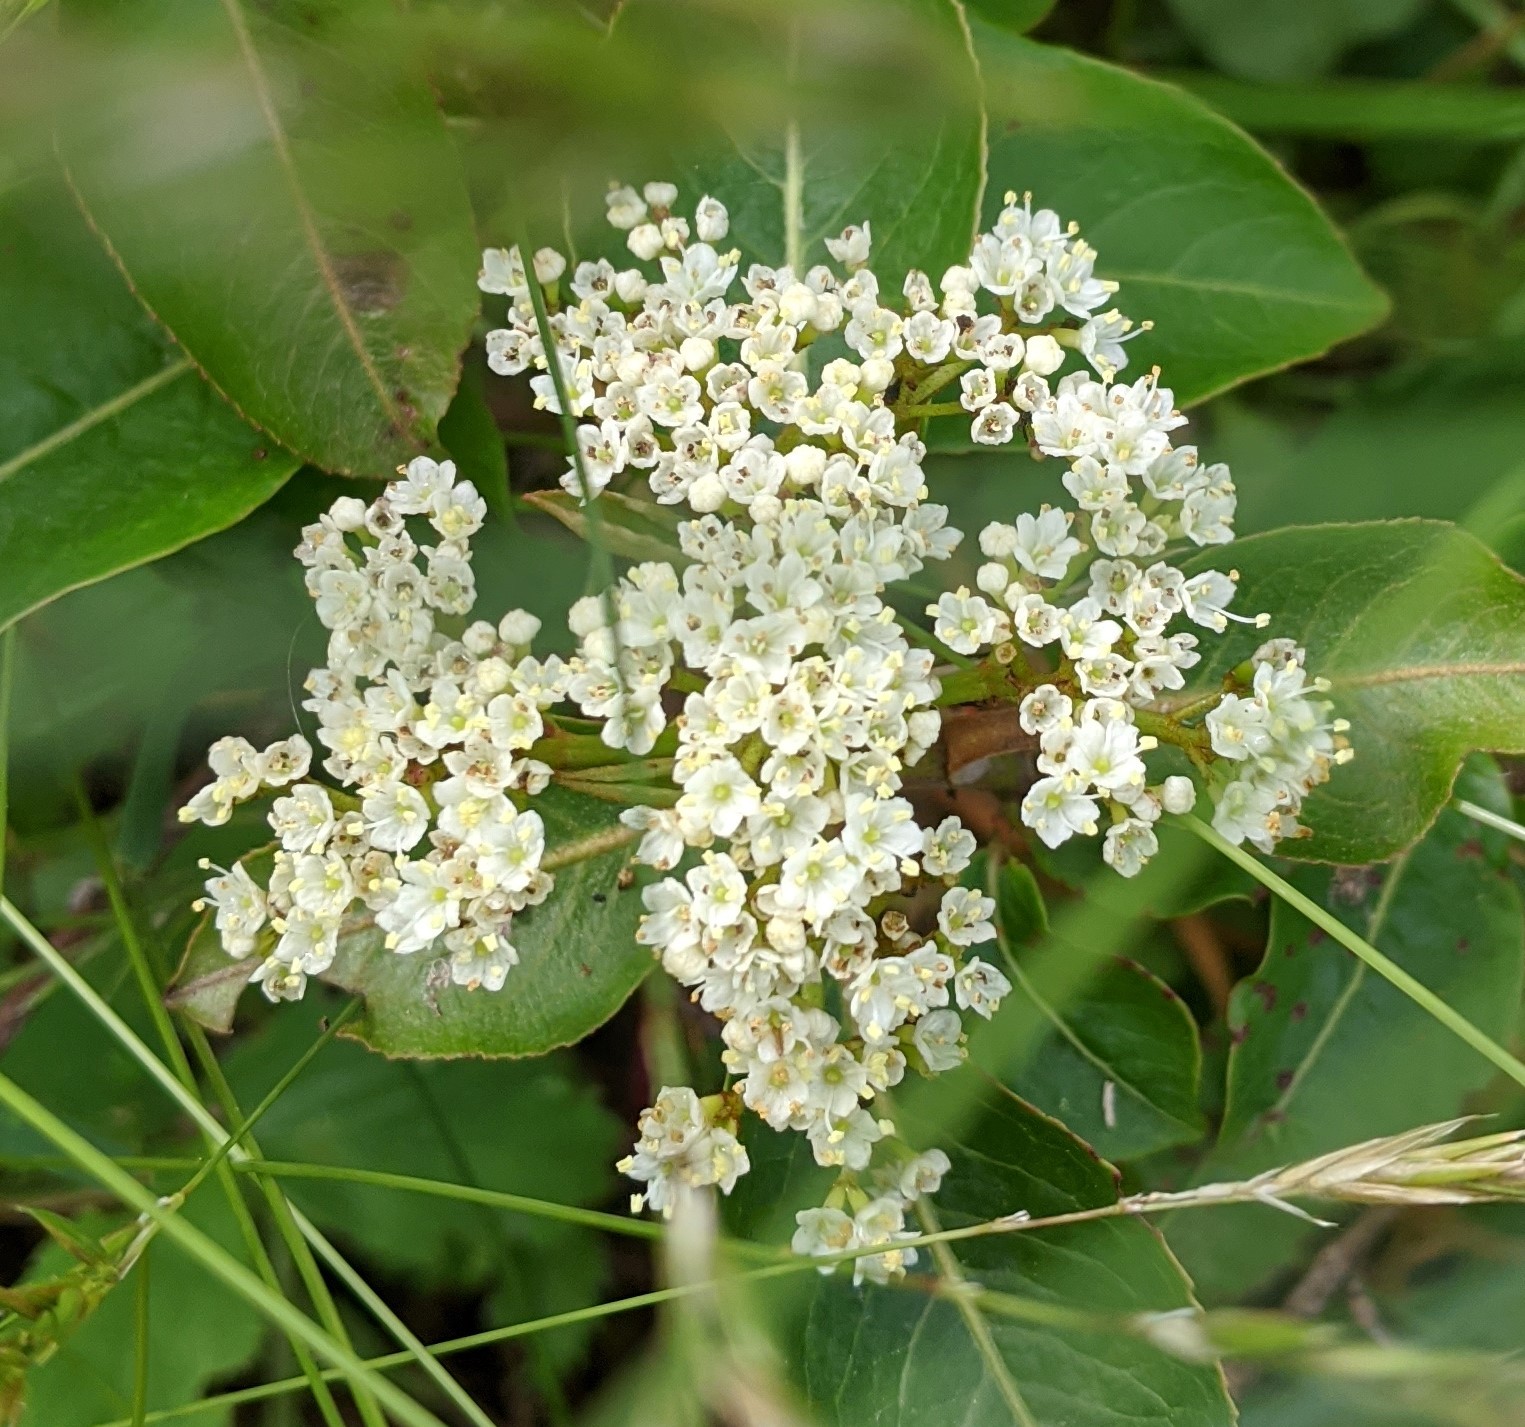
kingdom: Plantae
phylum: Tracheophyta
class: Magnoliopsida
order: Dipsacales
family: Viburnaceae
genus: Viburnum
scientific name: Viburnum cassinoides
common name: Swamp haw
